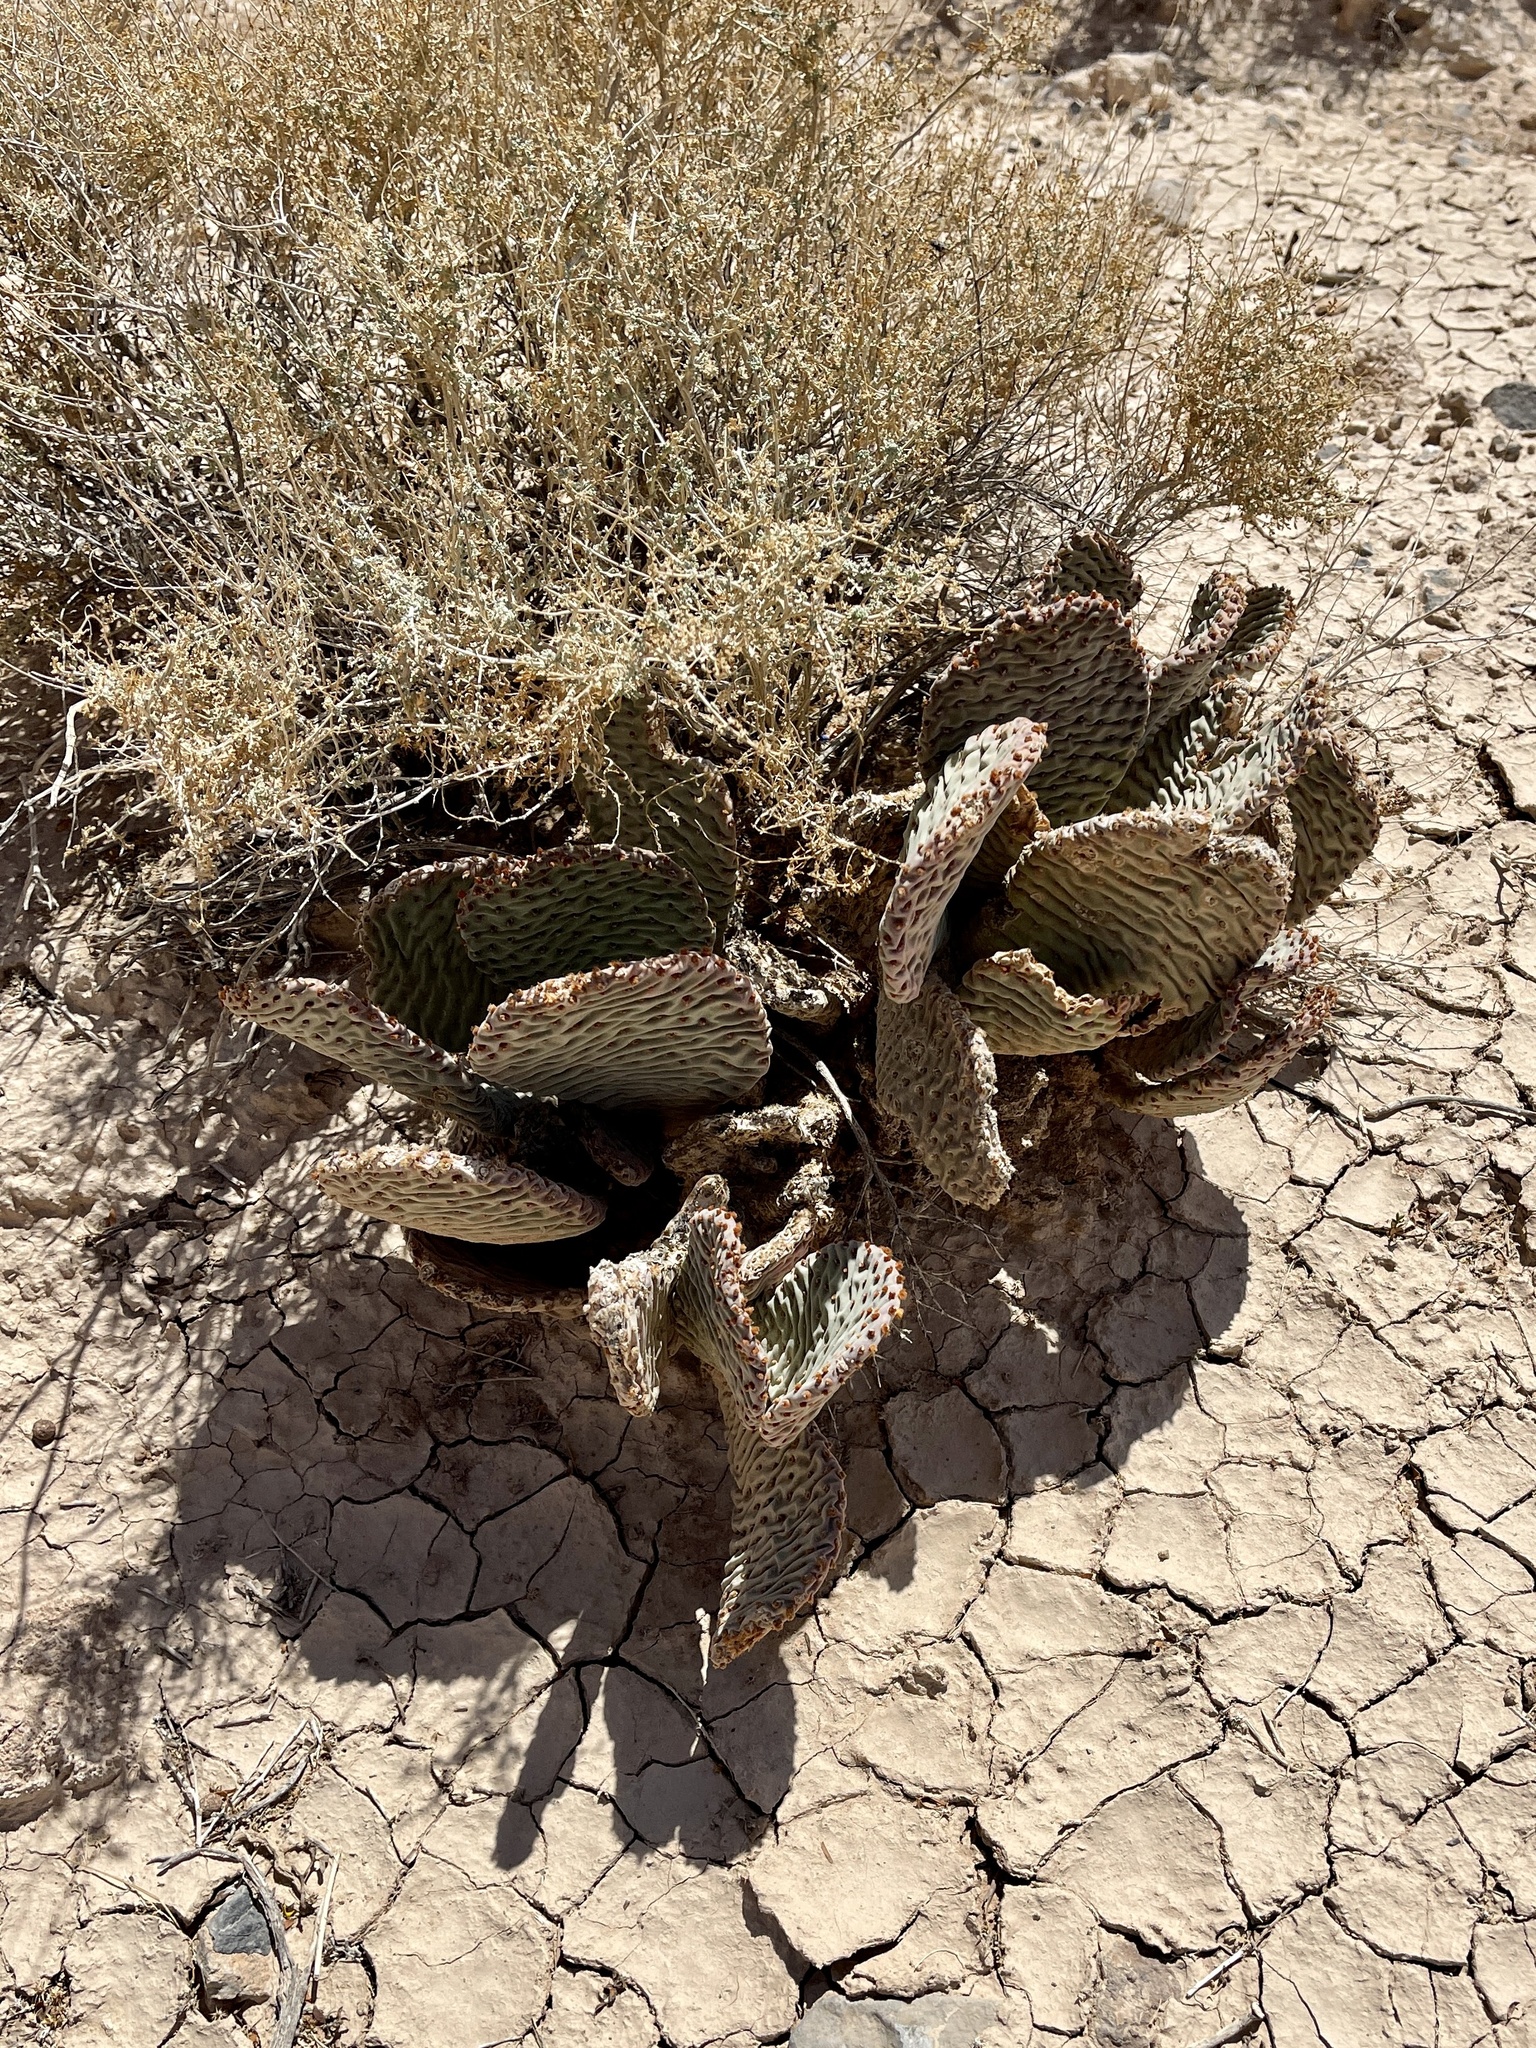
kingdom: Plantae
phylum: Tracheophyta
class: Magnoliopsida
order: Caryophyllales
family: Cactaceae
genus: Opuntia
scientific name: Opuntia basilaris
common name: Beavertail prickly-pear
